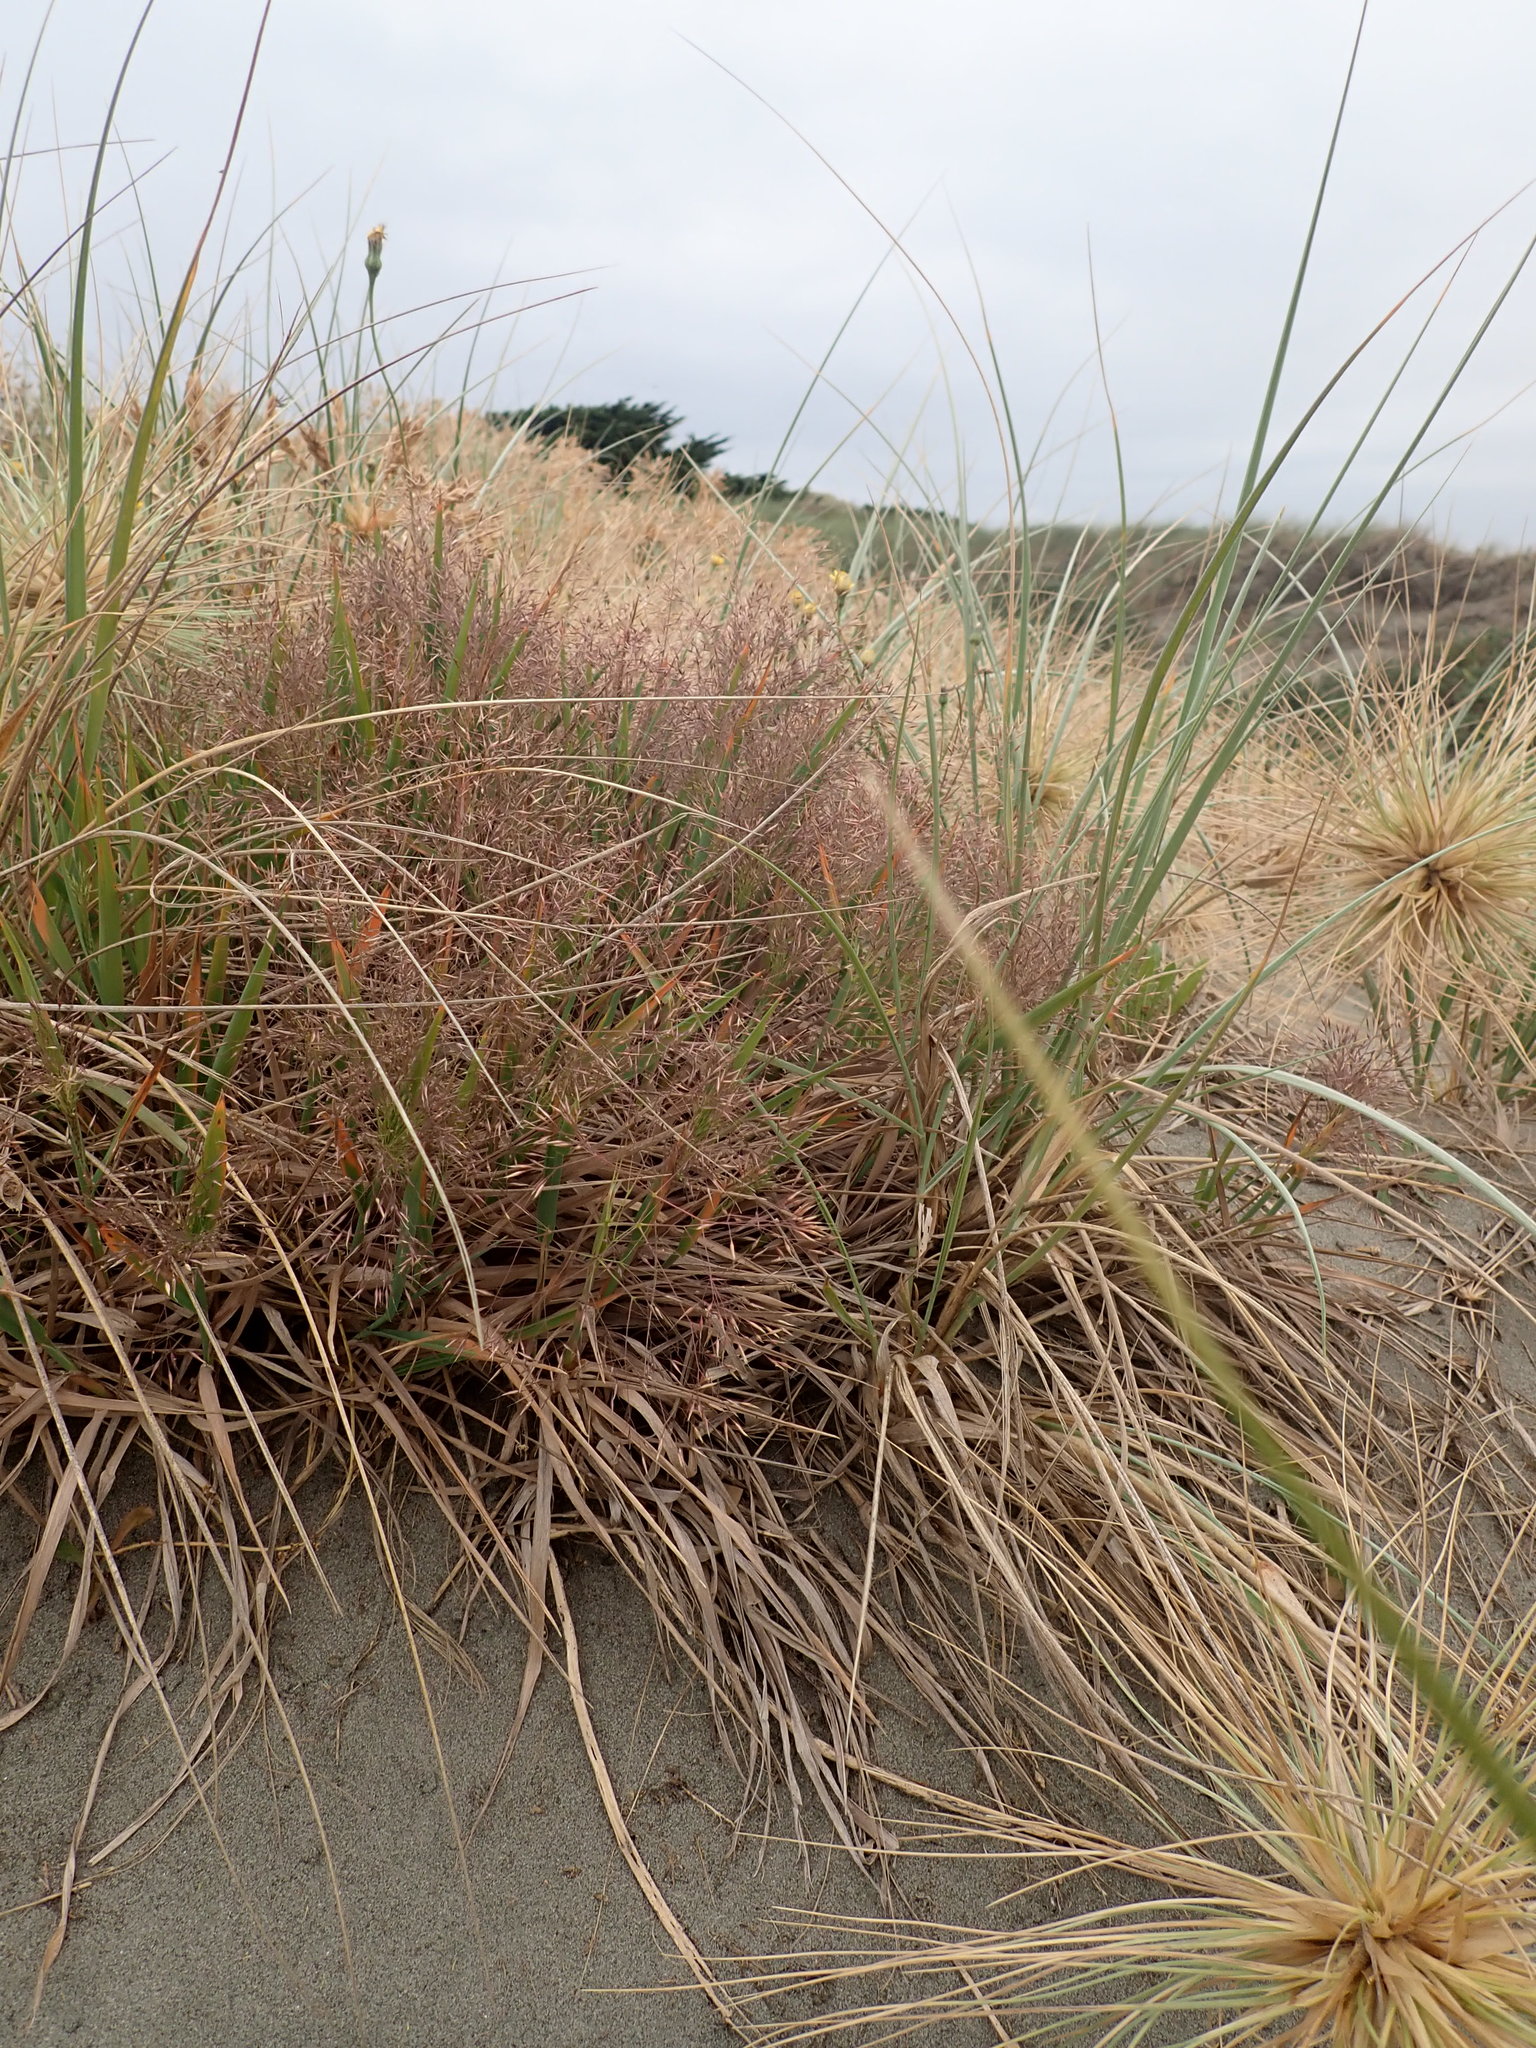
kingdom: Plantae
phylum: Tracheophyta
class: Liliopsida
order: Poales
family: Poaceae
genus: Lachnagrostis
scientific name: Lachnagrostis billardierei
